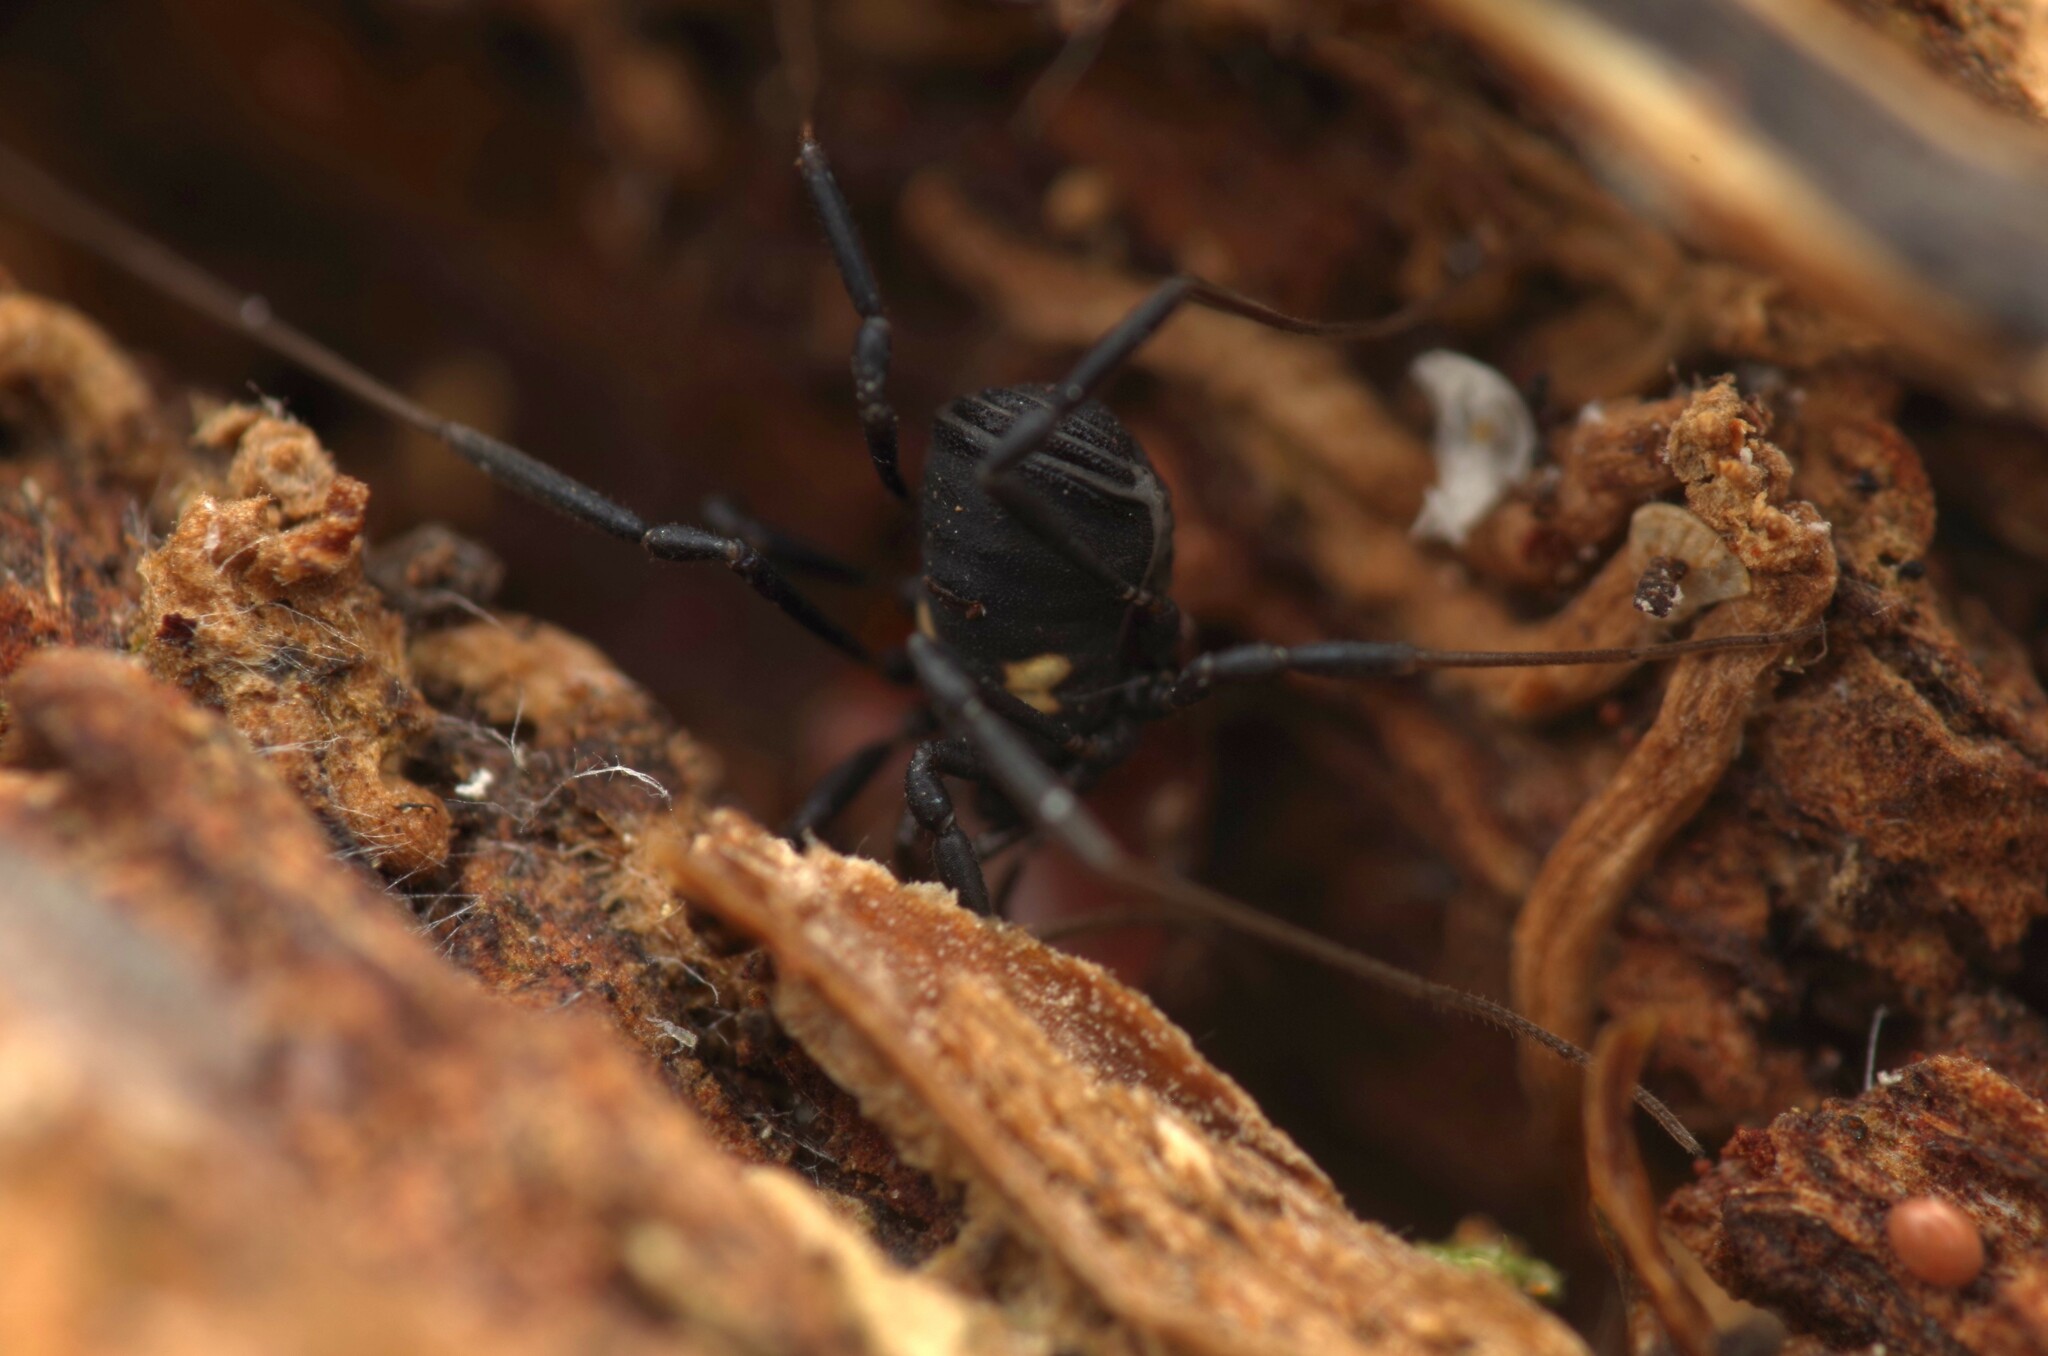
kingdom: Animalia
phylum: Arthropoda
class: Arachnida
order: Opiliones
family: Nemastomatidae
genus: Nemastoma
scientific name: Nemastoma bimaculatum
